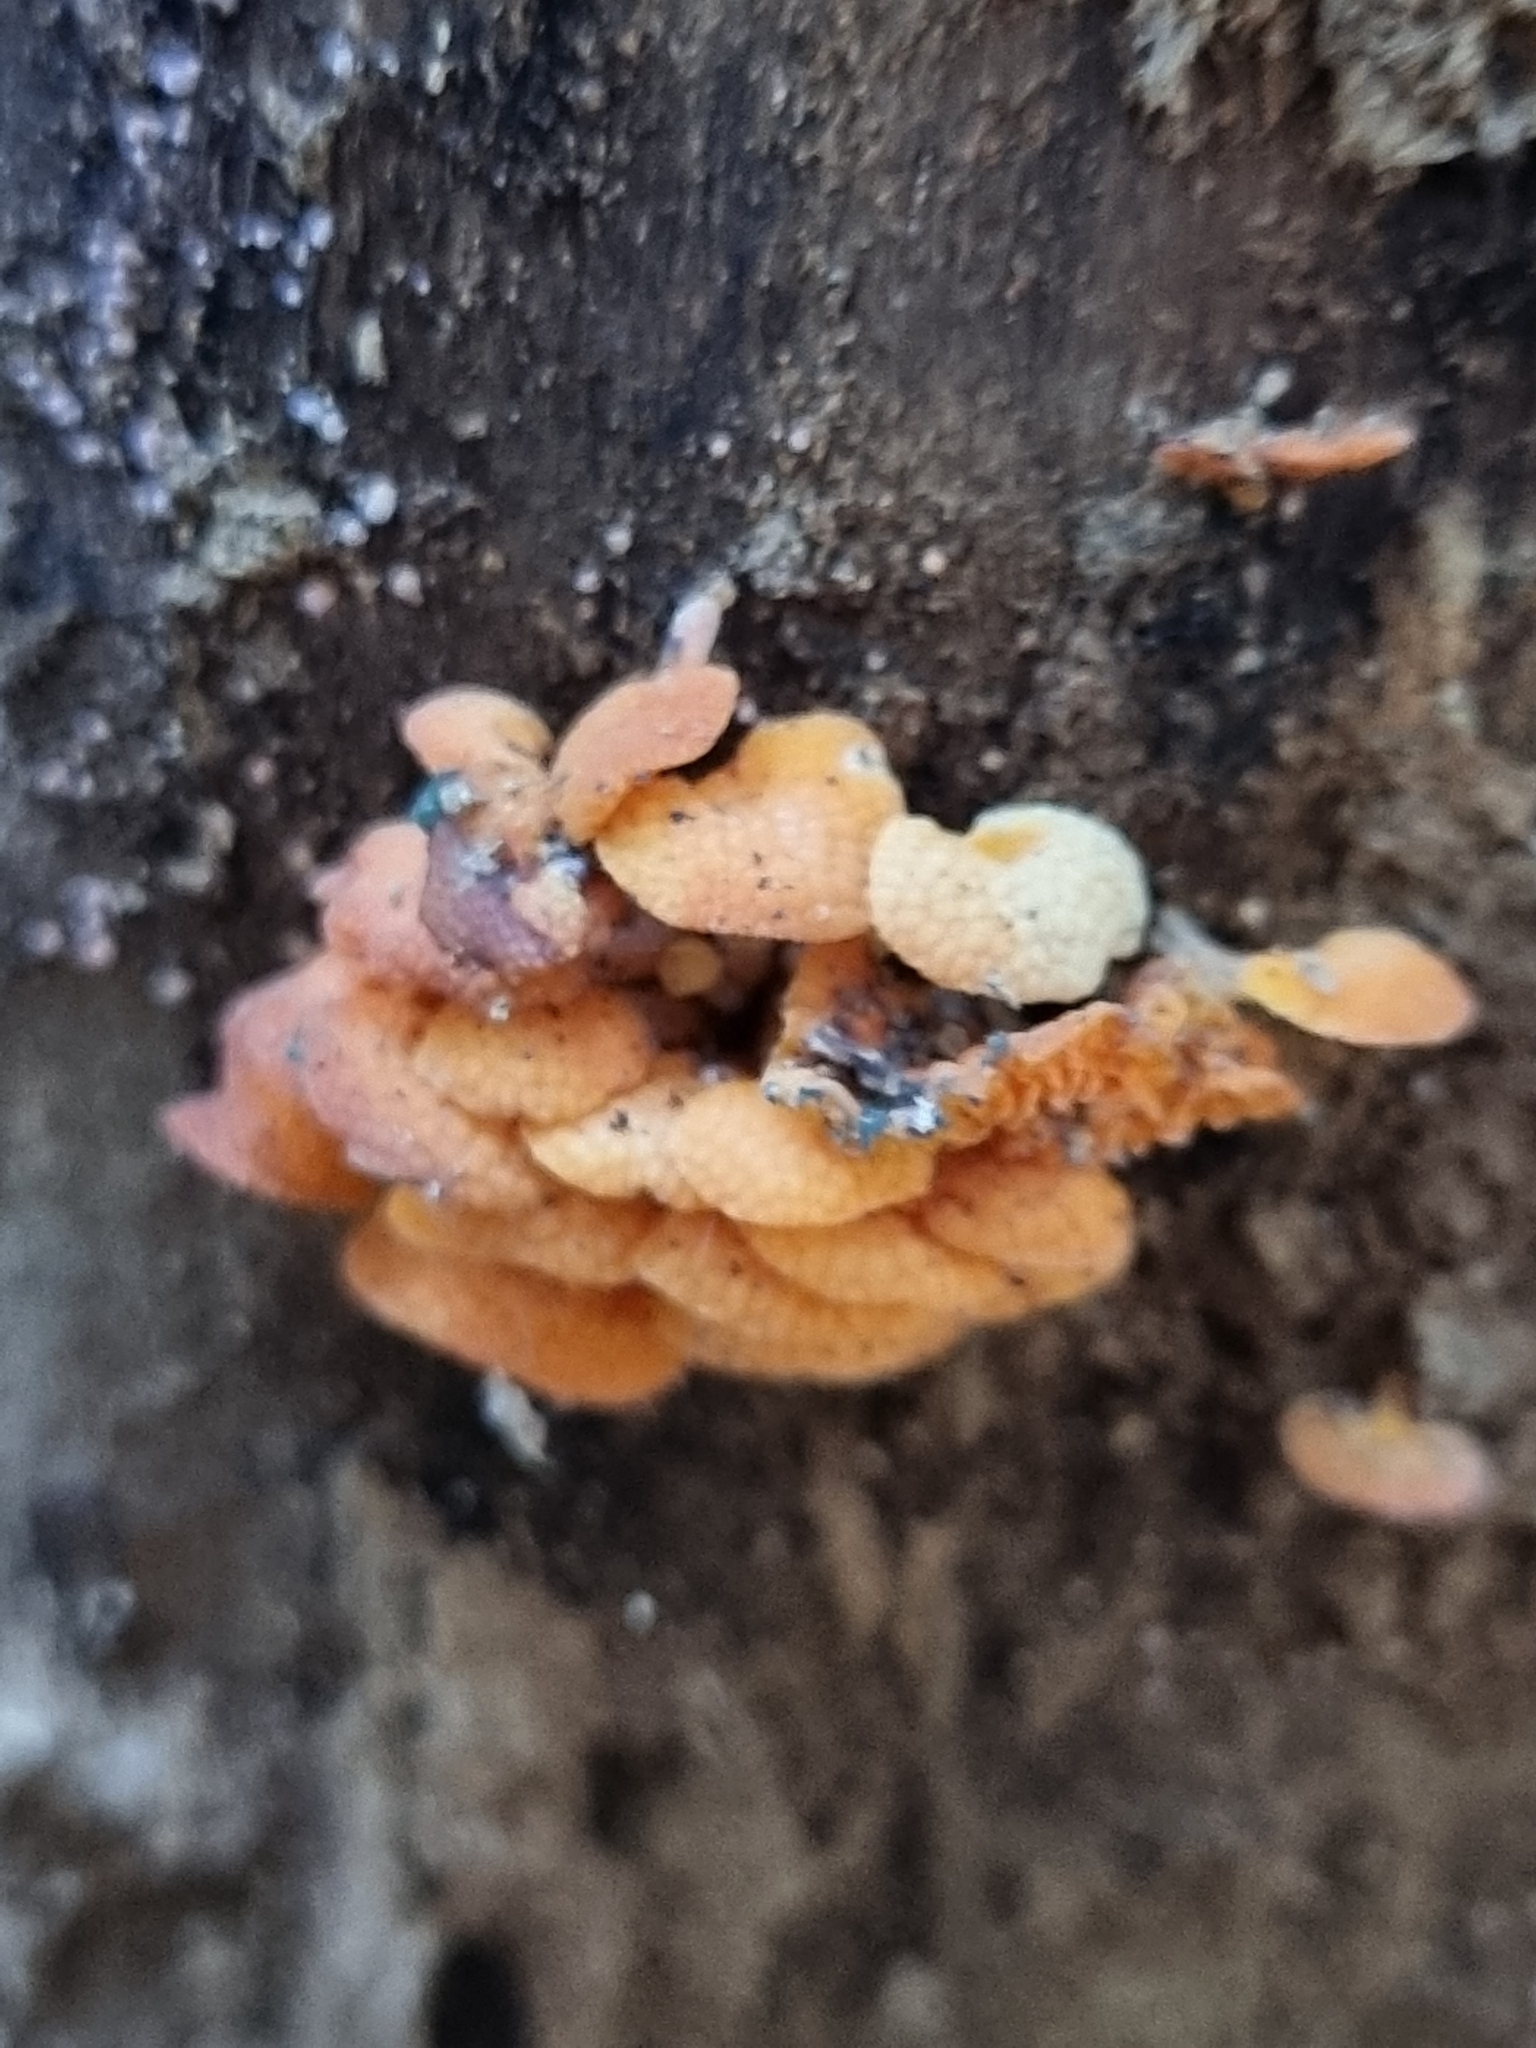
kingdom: Fungi
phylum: Basidiomycota
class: Agaricomycetes
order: Agaricales
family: Mycenaceae
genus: Favolaschia
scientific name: Favolaschia claudopus
